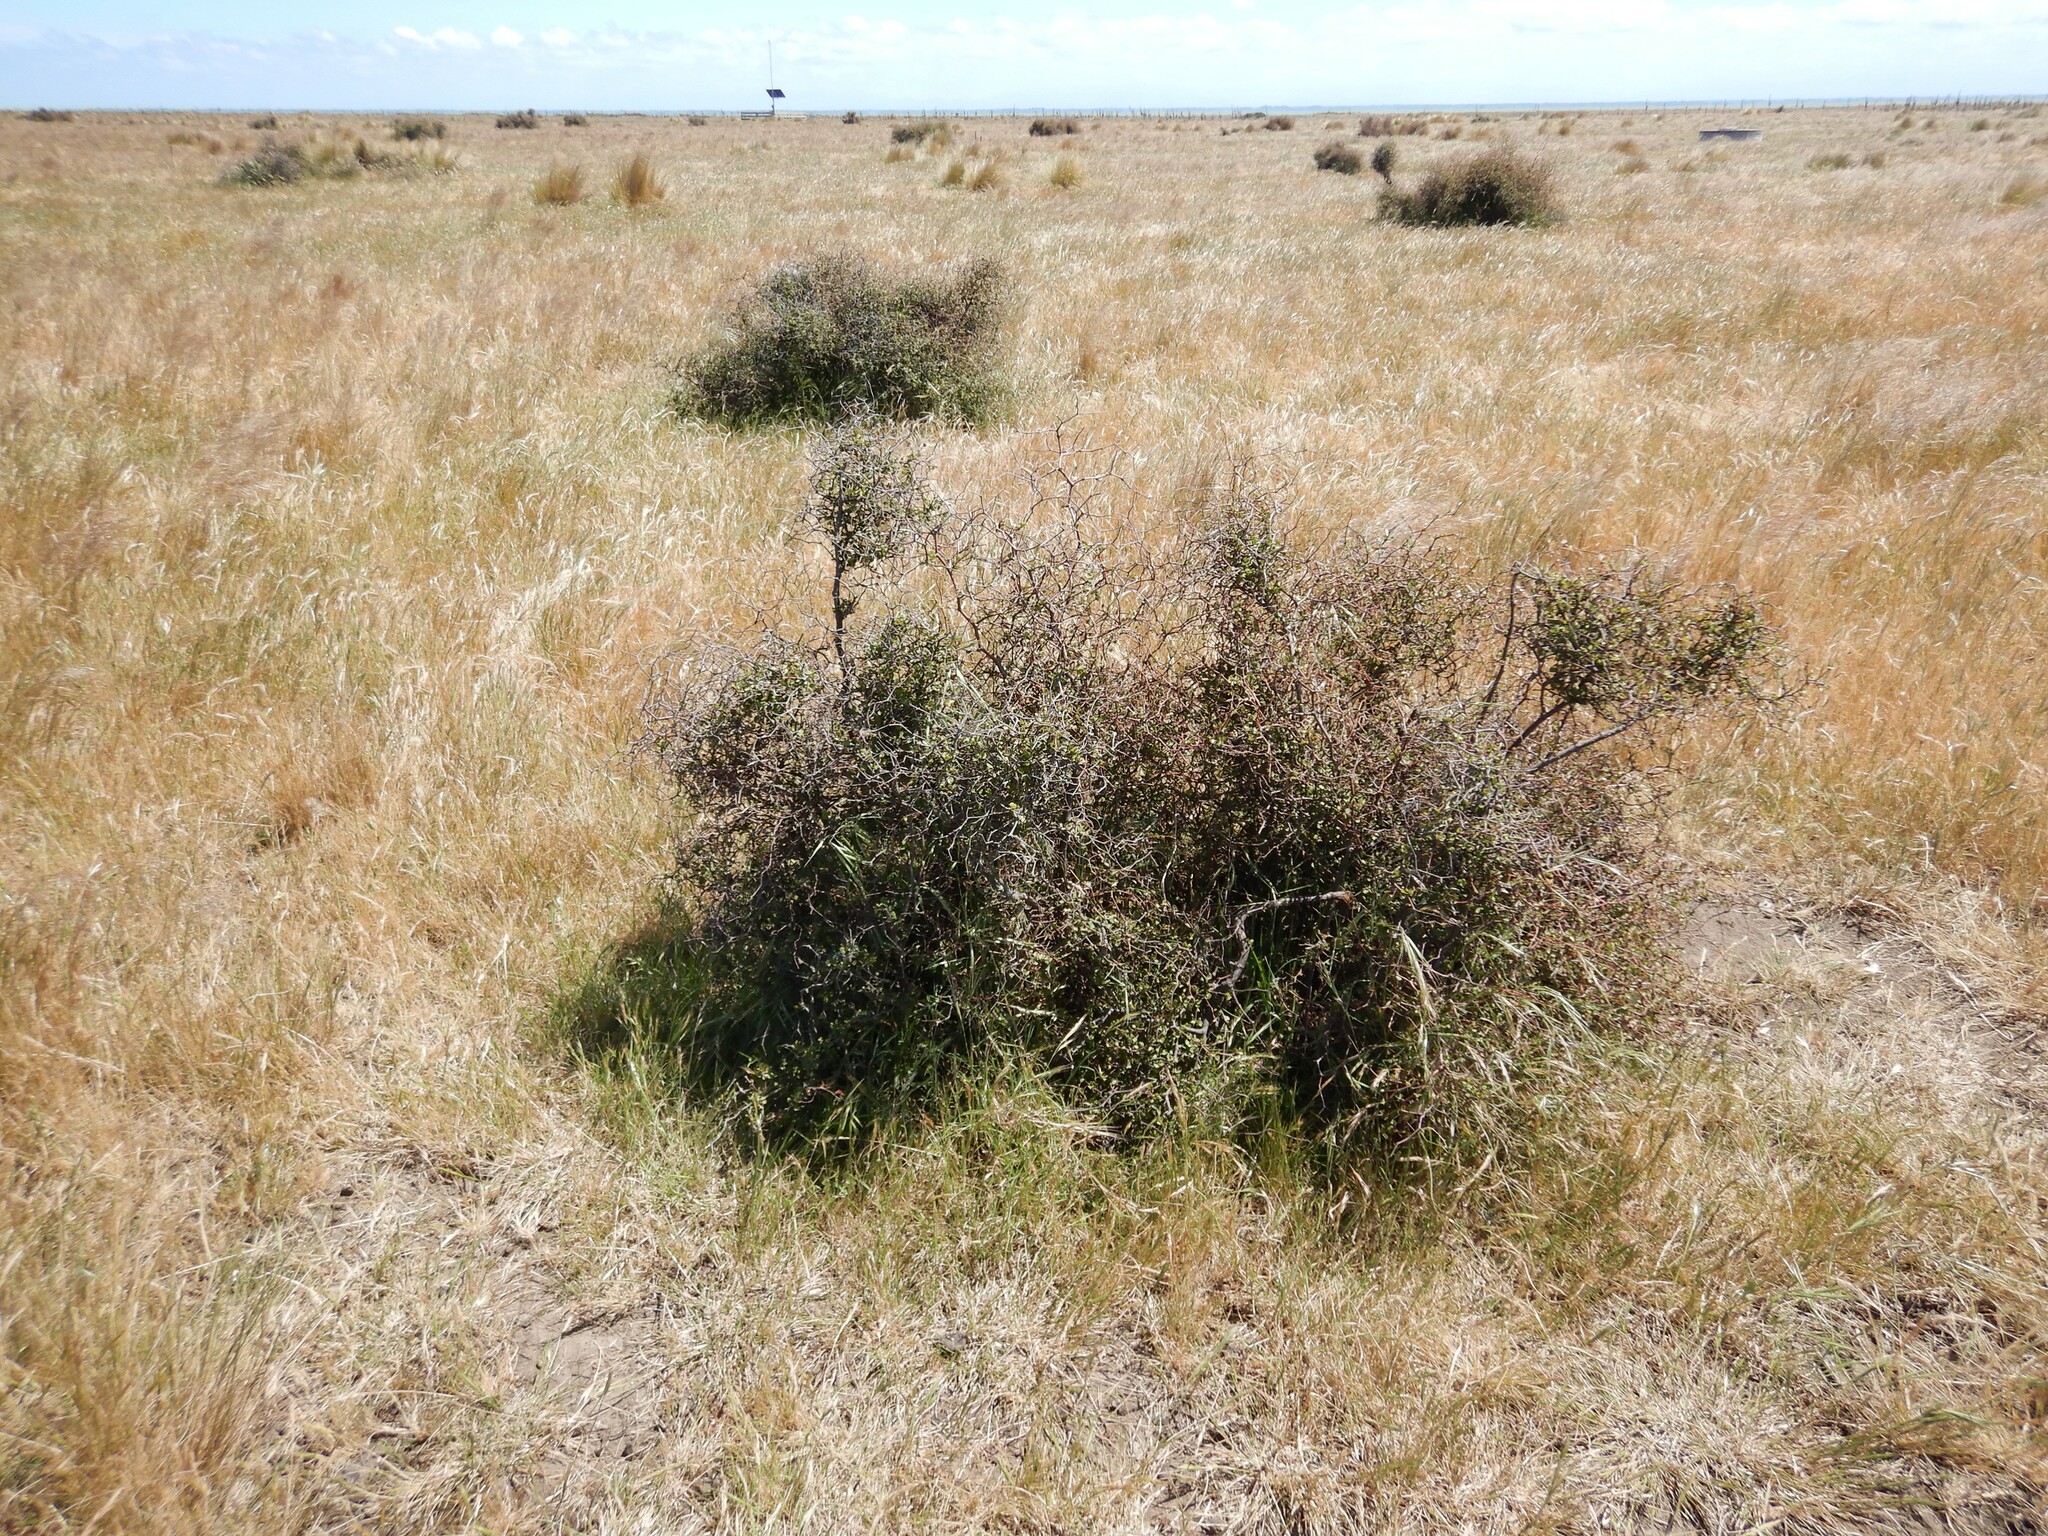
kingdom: Plantae
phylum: Tracheophyta
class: Magnoliopsida
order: Caryophyllales
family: Polygonaceae
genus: Muehlenbeckia
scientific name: Muehlenbeckia astonii
